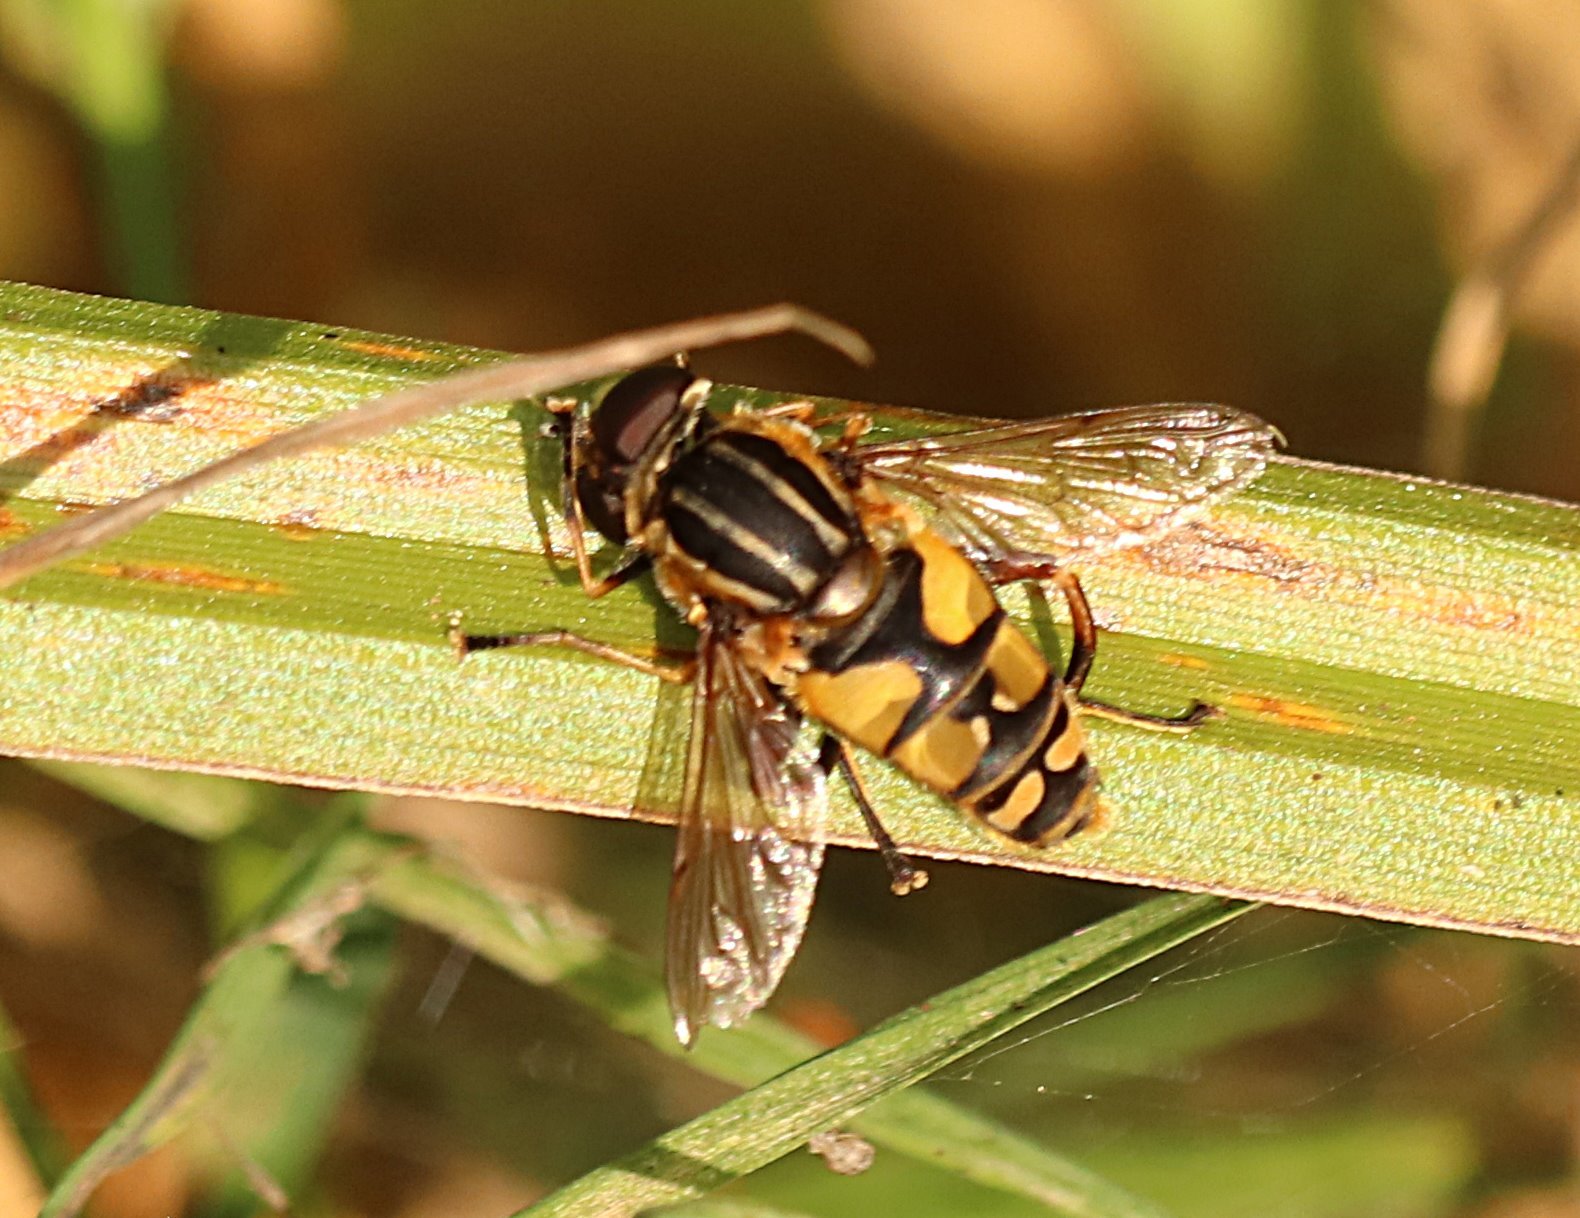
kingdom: Animalia
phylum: Arthropoda
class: Insecta
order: Diptera
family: Syrphidae
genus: Helophilus
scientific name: Helophilus pendulus
